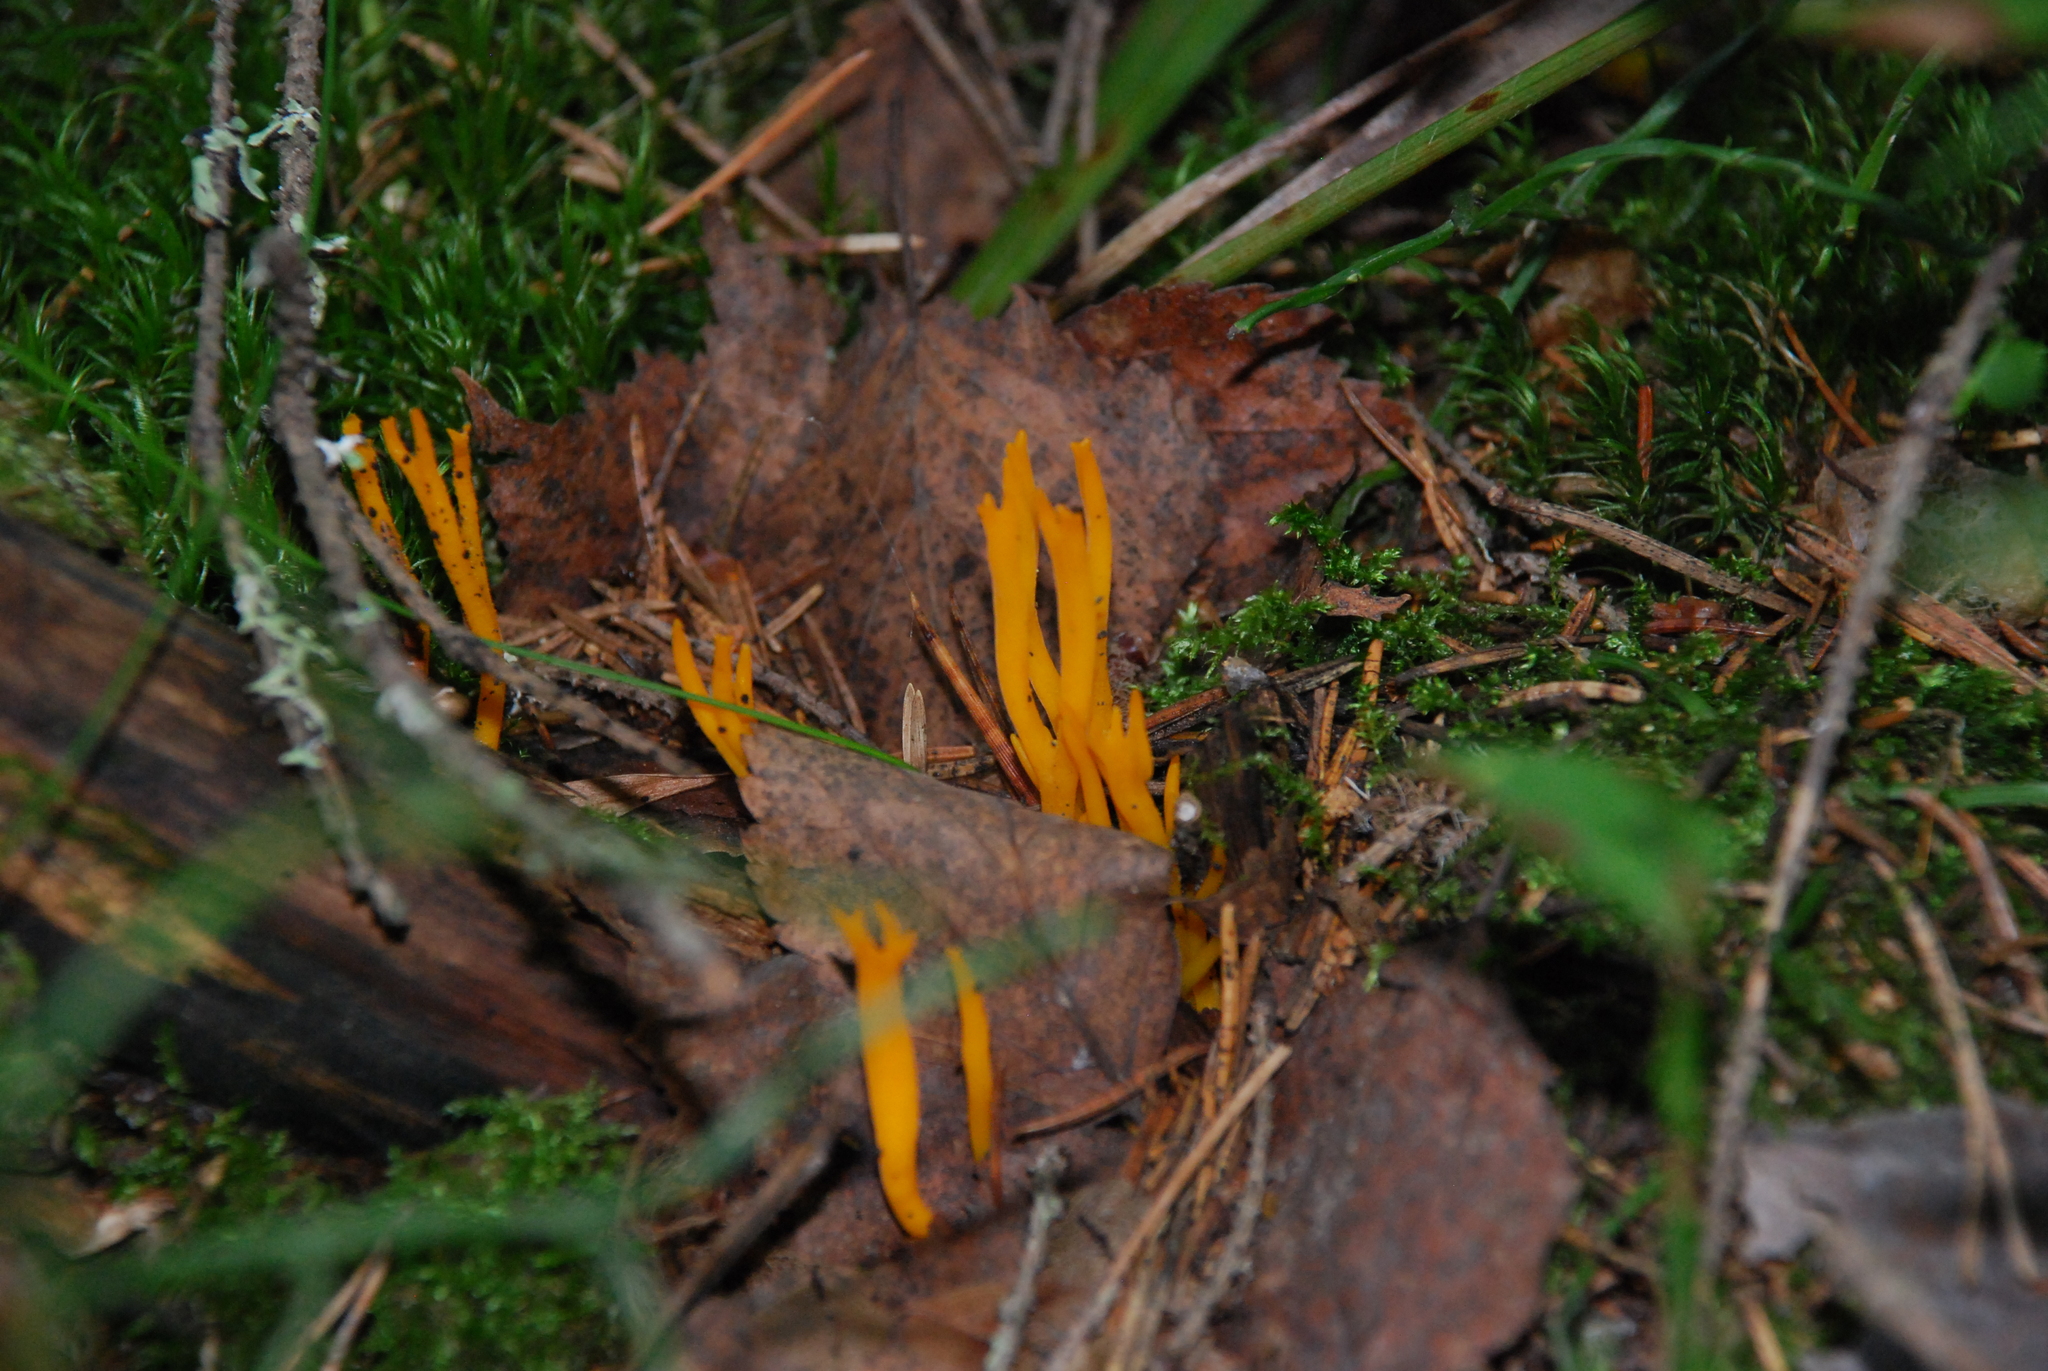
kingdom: Fungi
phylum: Basidiomycota
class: Dacrymycetes
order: Dacrymycetales
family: Dacrymycetaceae
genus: Calocera
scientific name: Calocera viscosa
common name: Yellow stagshorn
